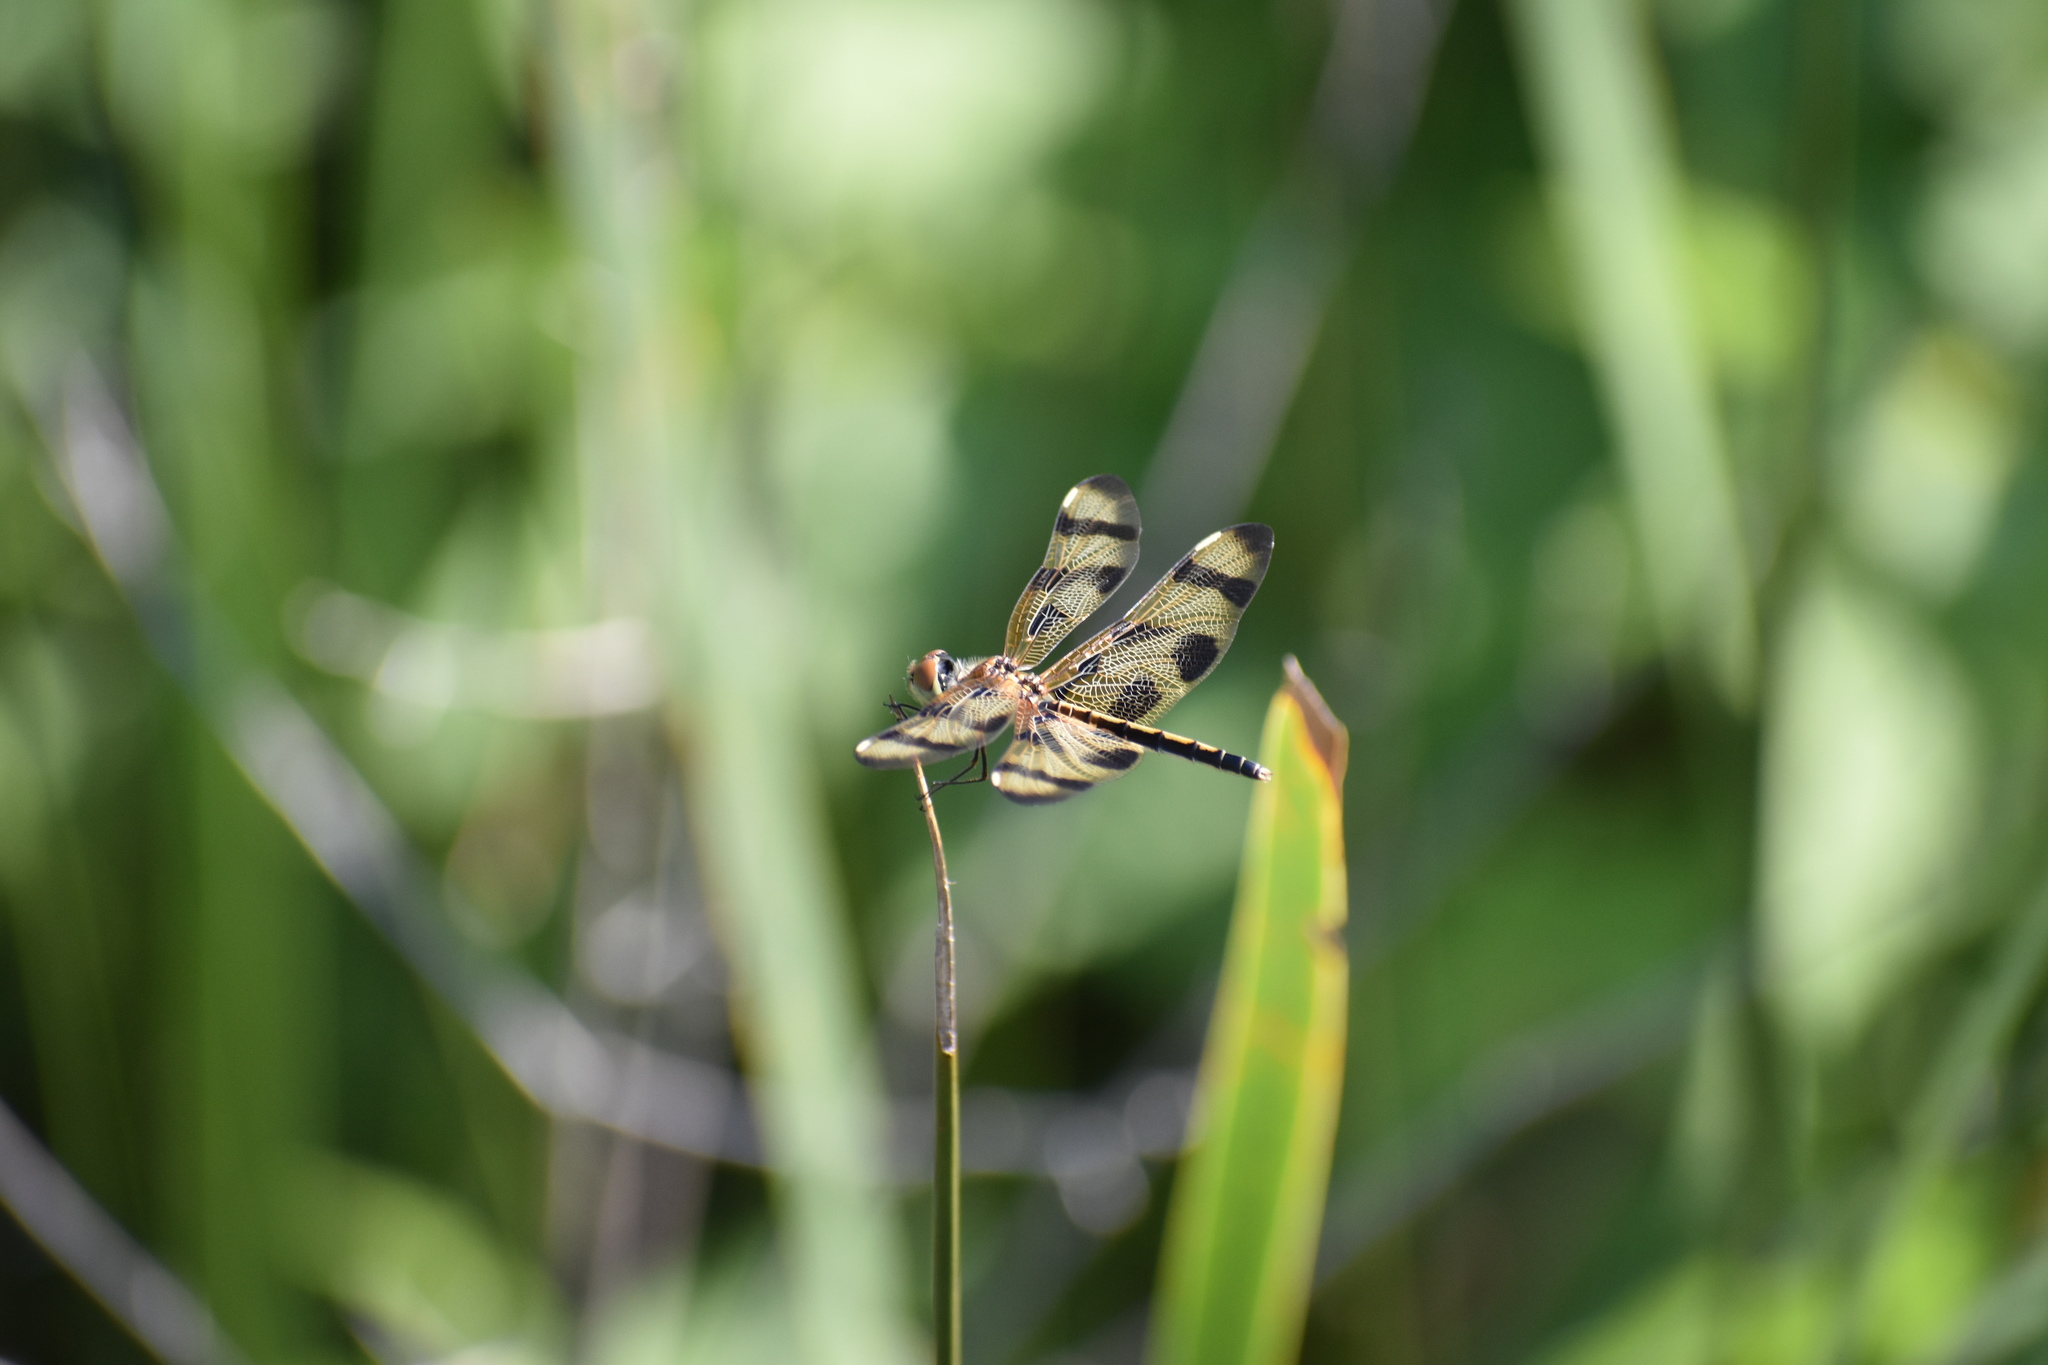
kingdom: Animalia
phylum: Arthropoda
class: Insecta
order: Odonata
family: Libellulidae
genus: Celithemis
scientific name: Celithemis eponina
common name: Halloween pennant
